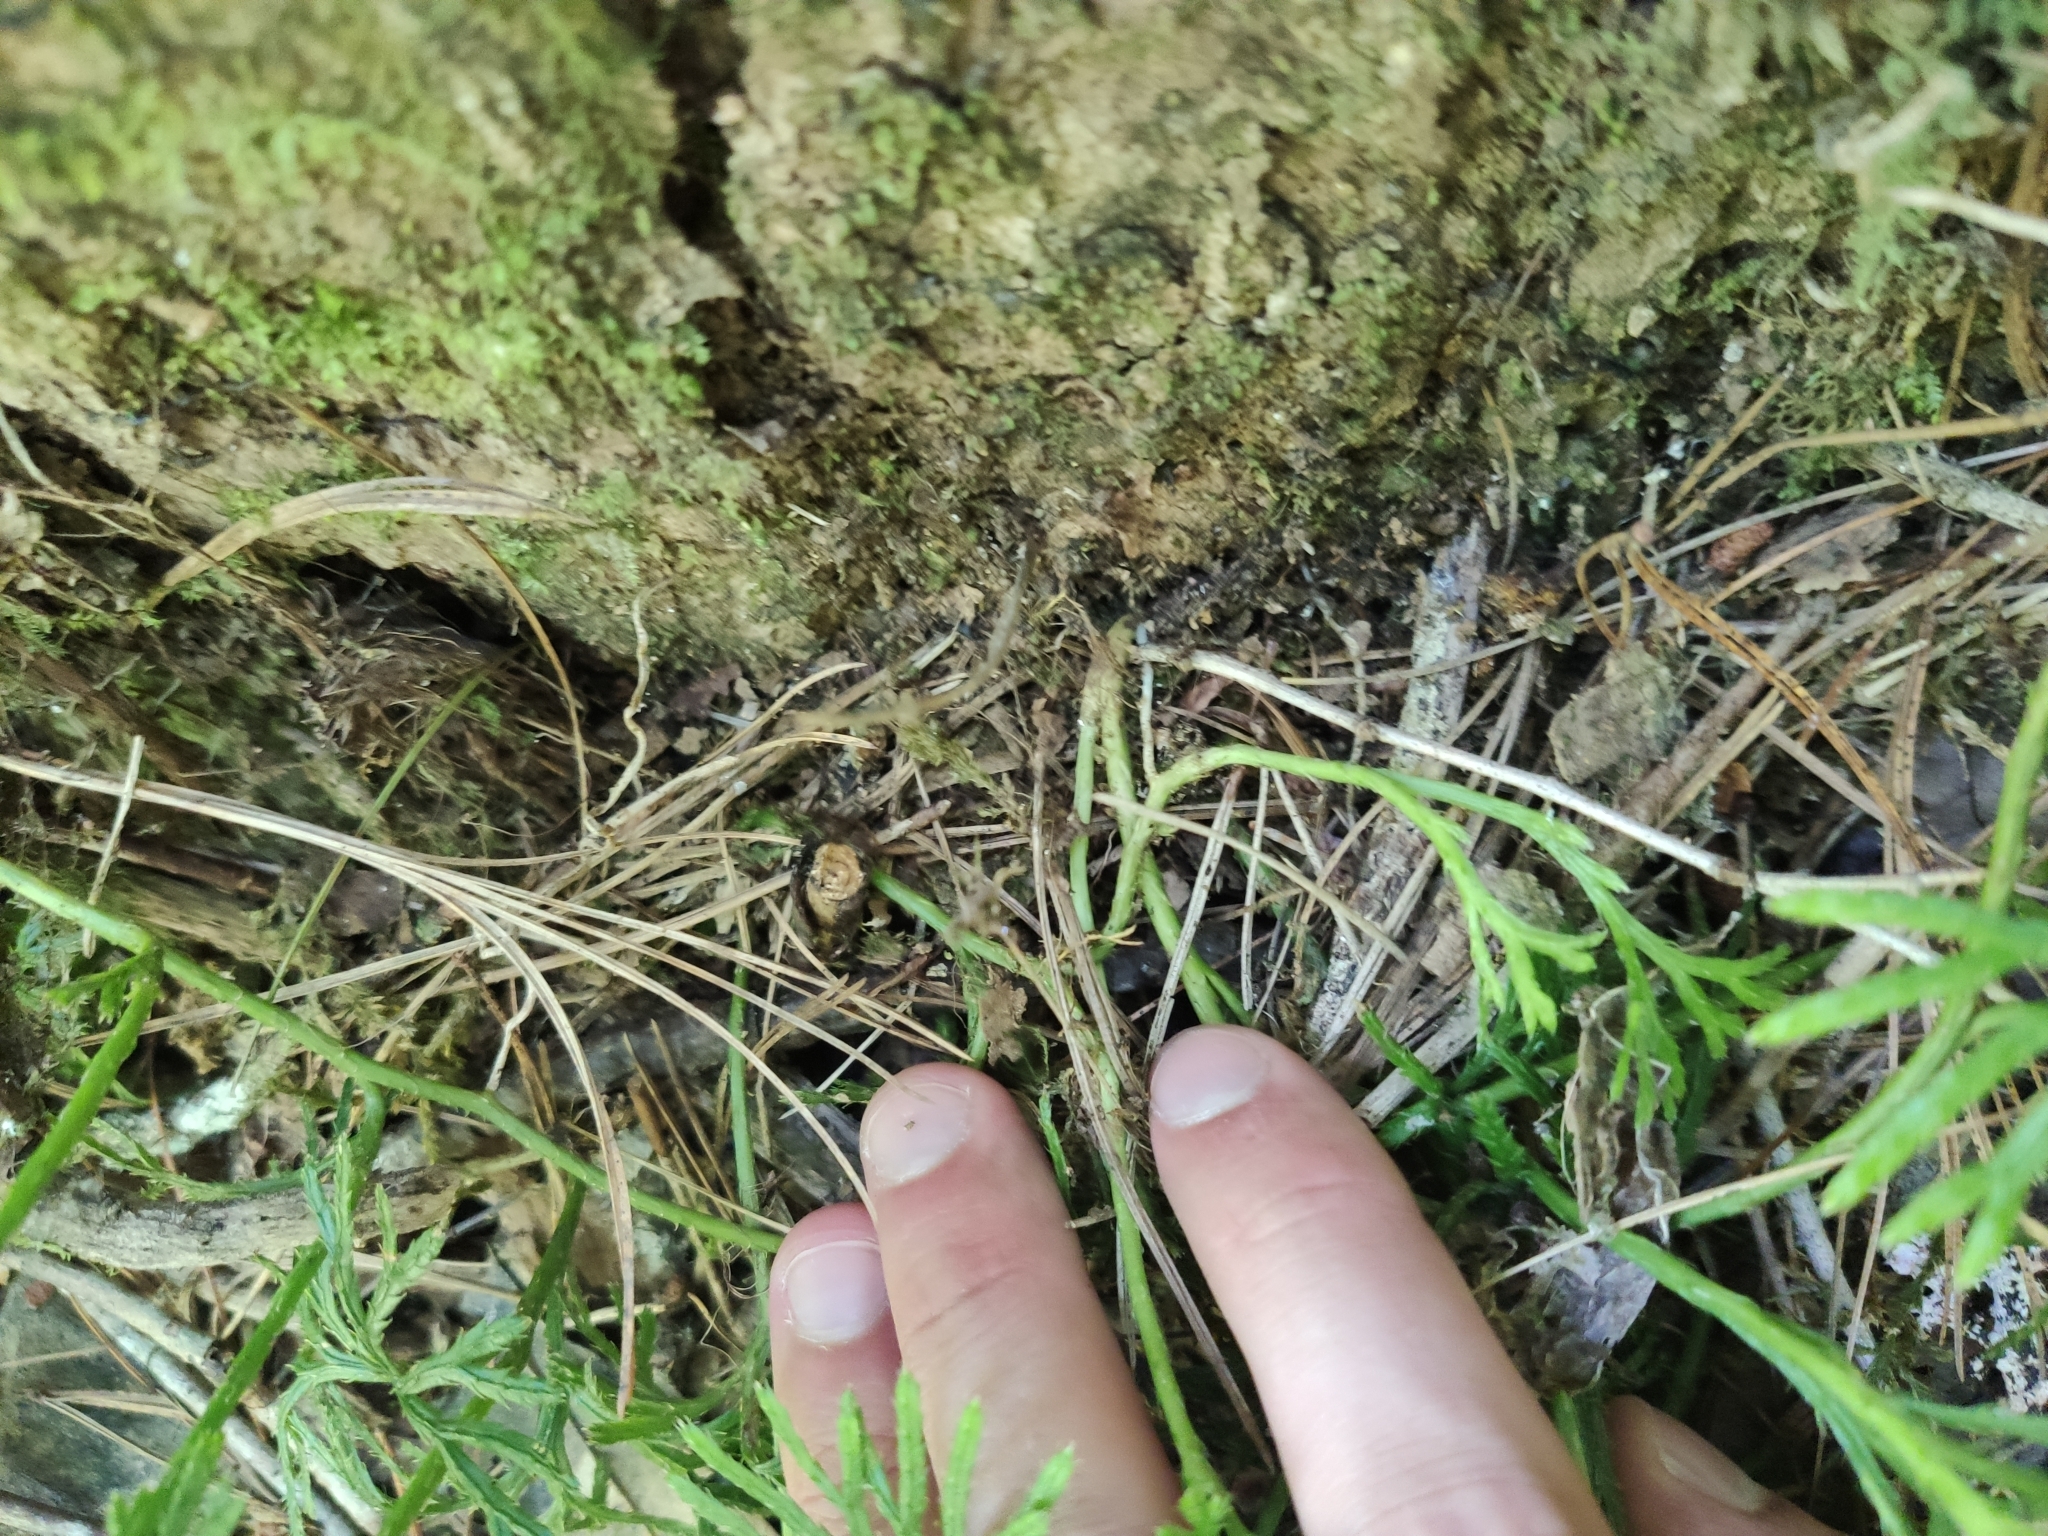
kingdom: Plantae
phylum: Tracheophyta
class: Lycopodiopsida
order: Lycopodiales
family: Lycopodiaceae
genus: Diphasiastrum
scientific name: Diphasiastrum digitatum
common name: Southern running-pine
